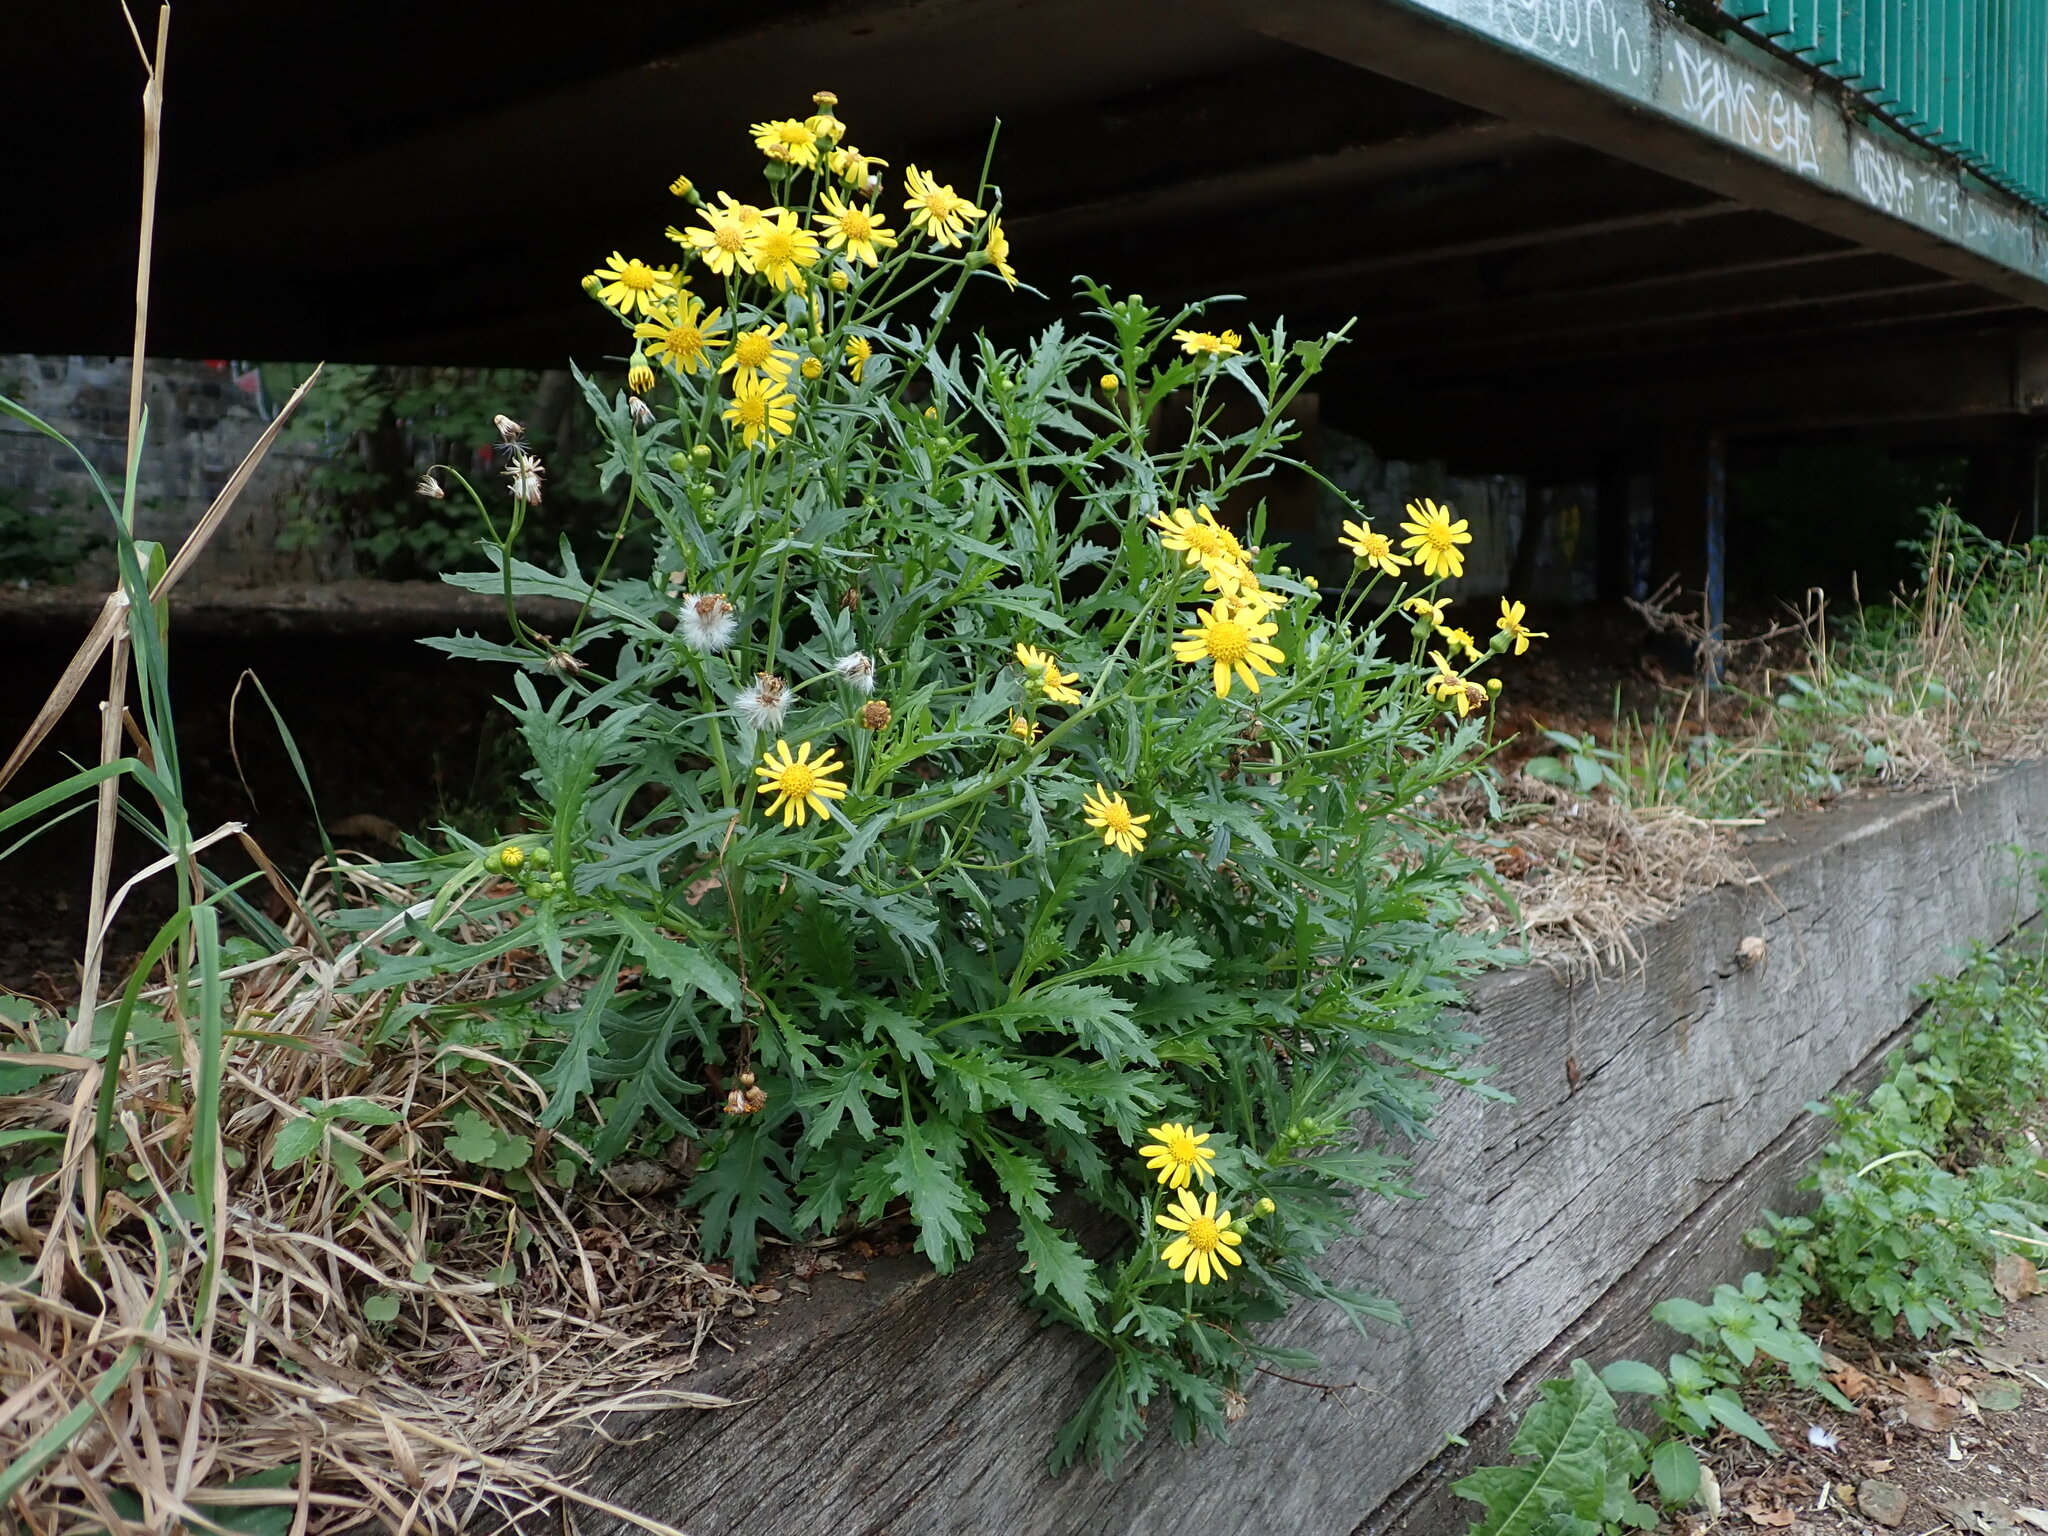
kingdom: Plantae
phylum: Tracheophyta
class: Magnoliopsida
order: Asterales
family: Asteraceae
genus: Senecio
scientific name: Senecio squalidus
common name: Oxford ragwort
